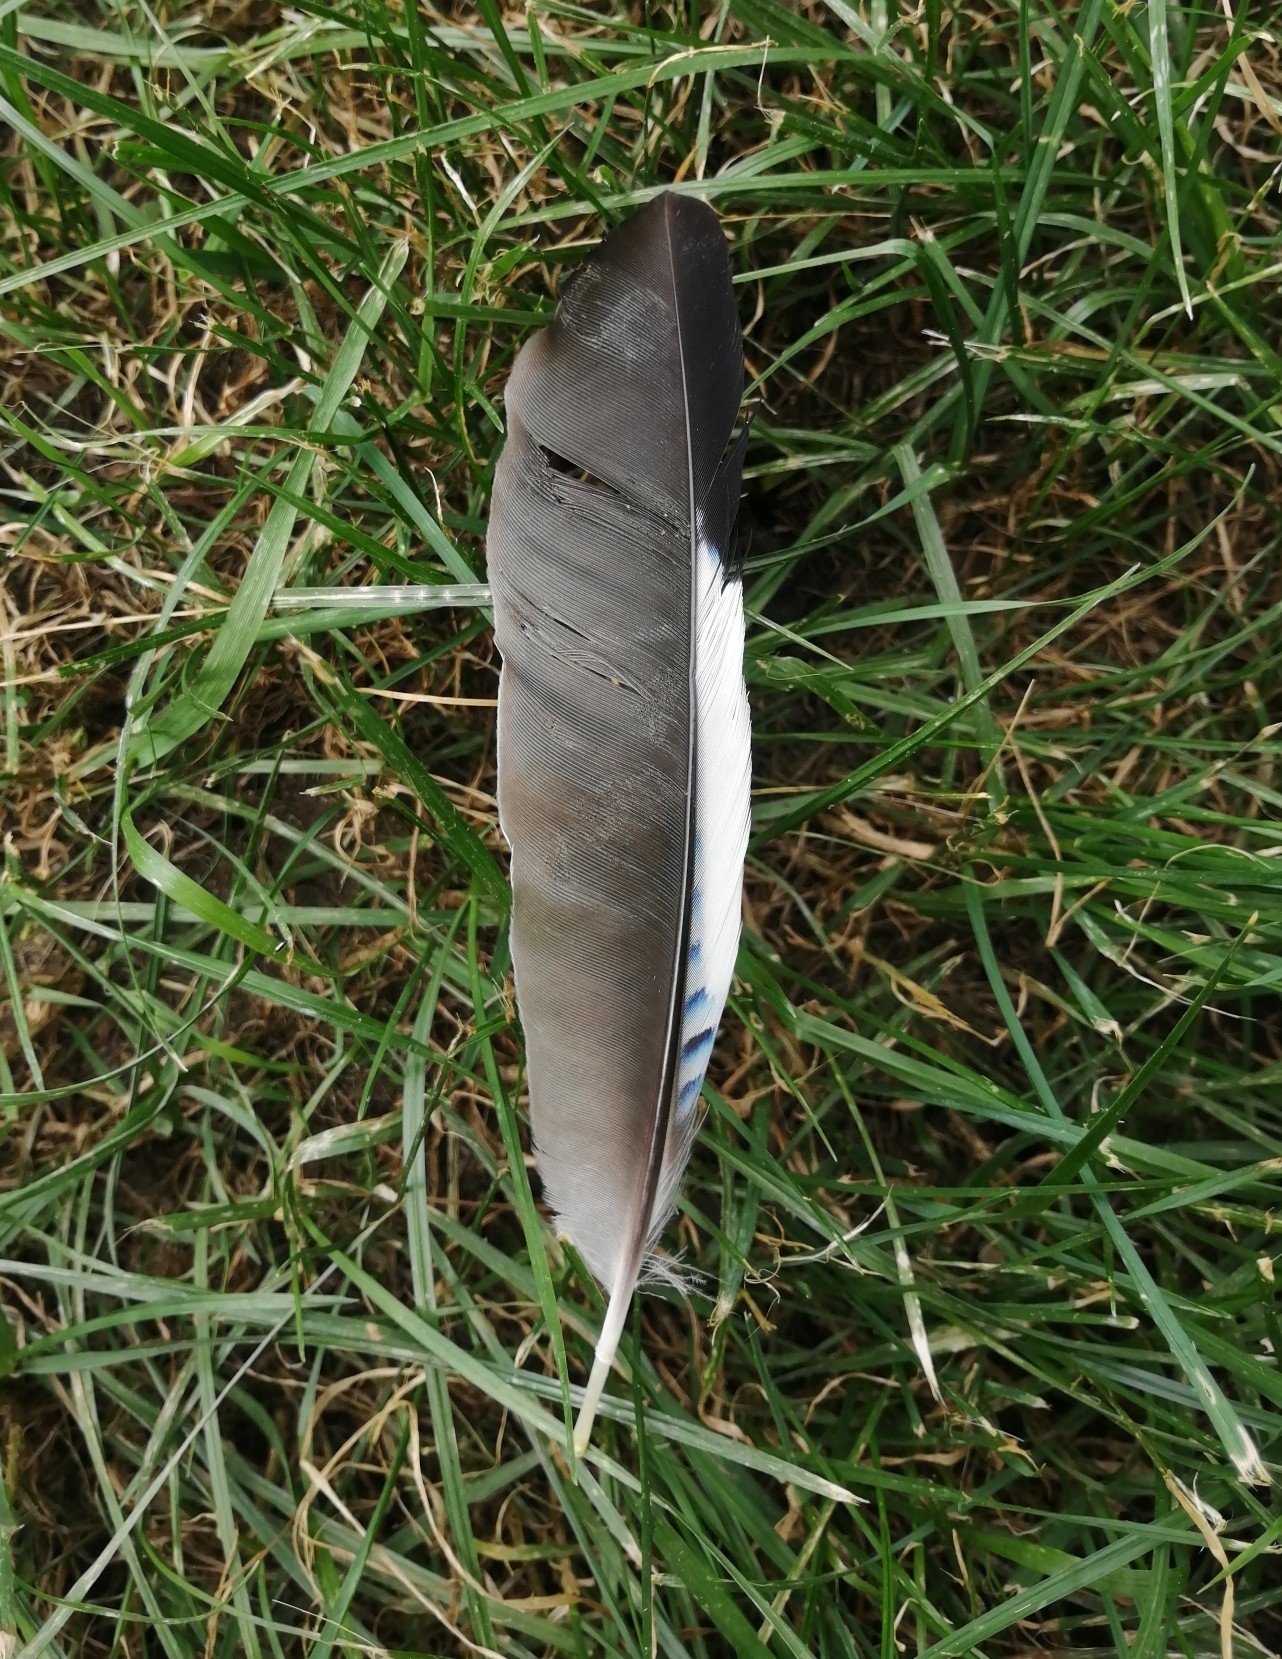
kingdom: Animalia
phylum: Chordata
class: Aves
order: Passeriformes
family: Corvidae
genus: Garrulus
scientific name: Garrulus glandarius
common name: Eurasian jay
